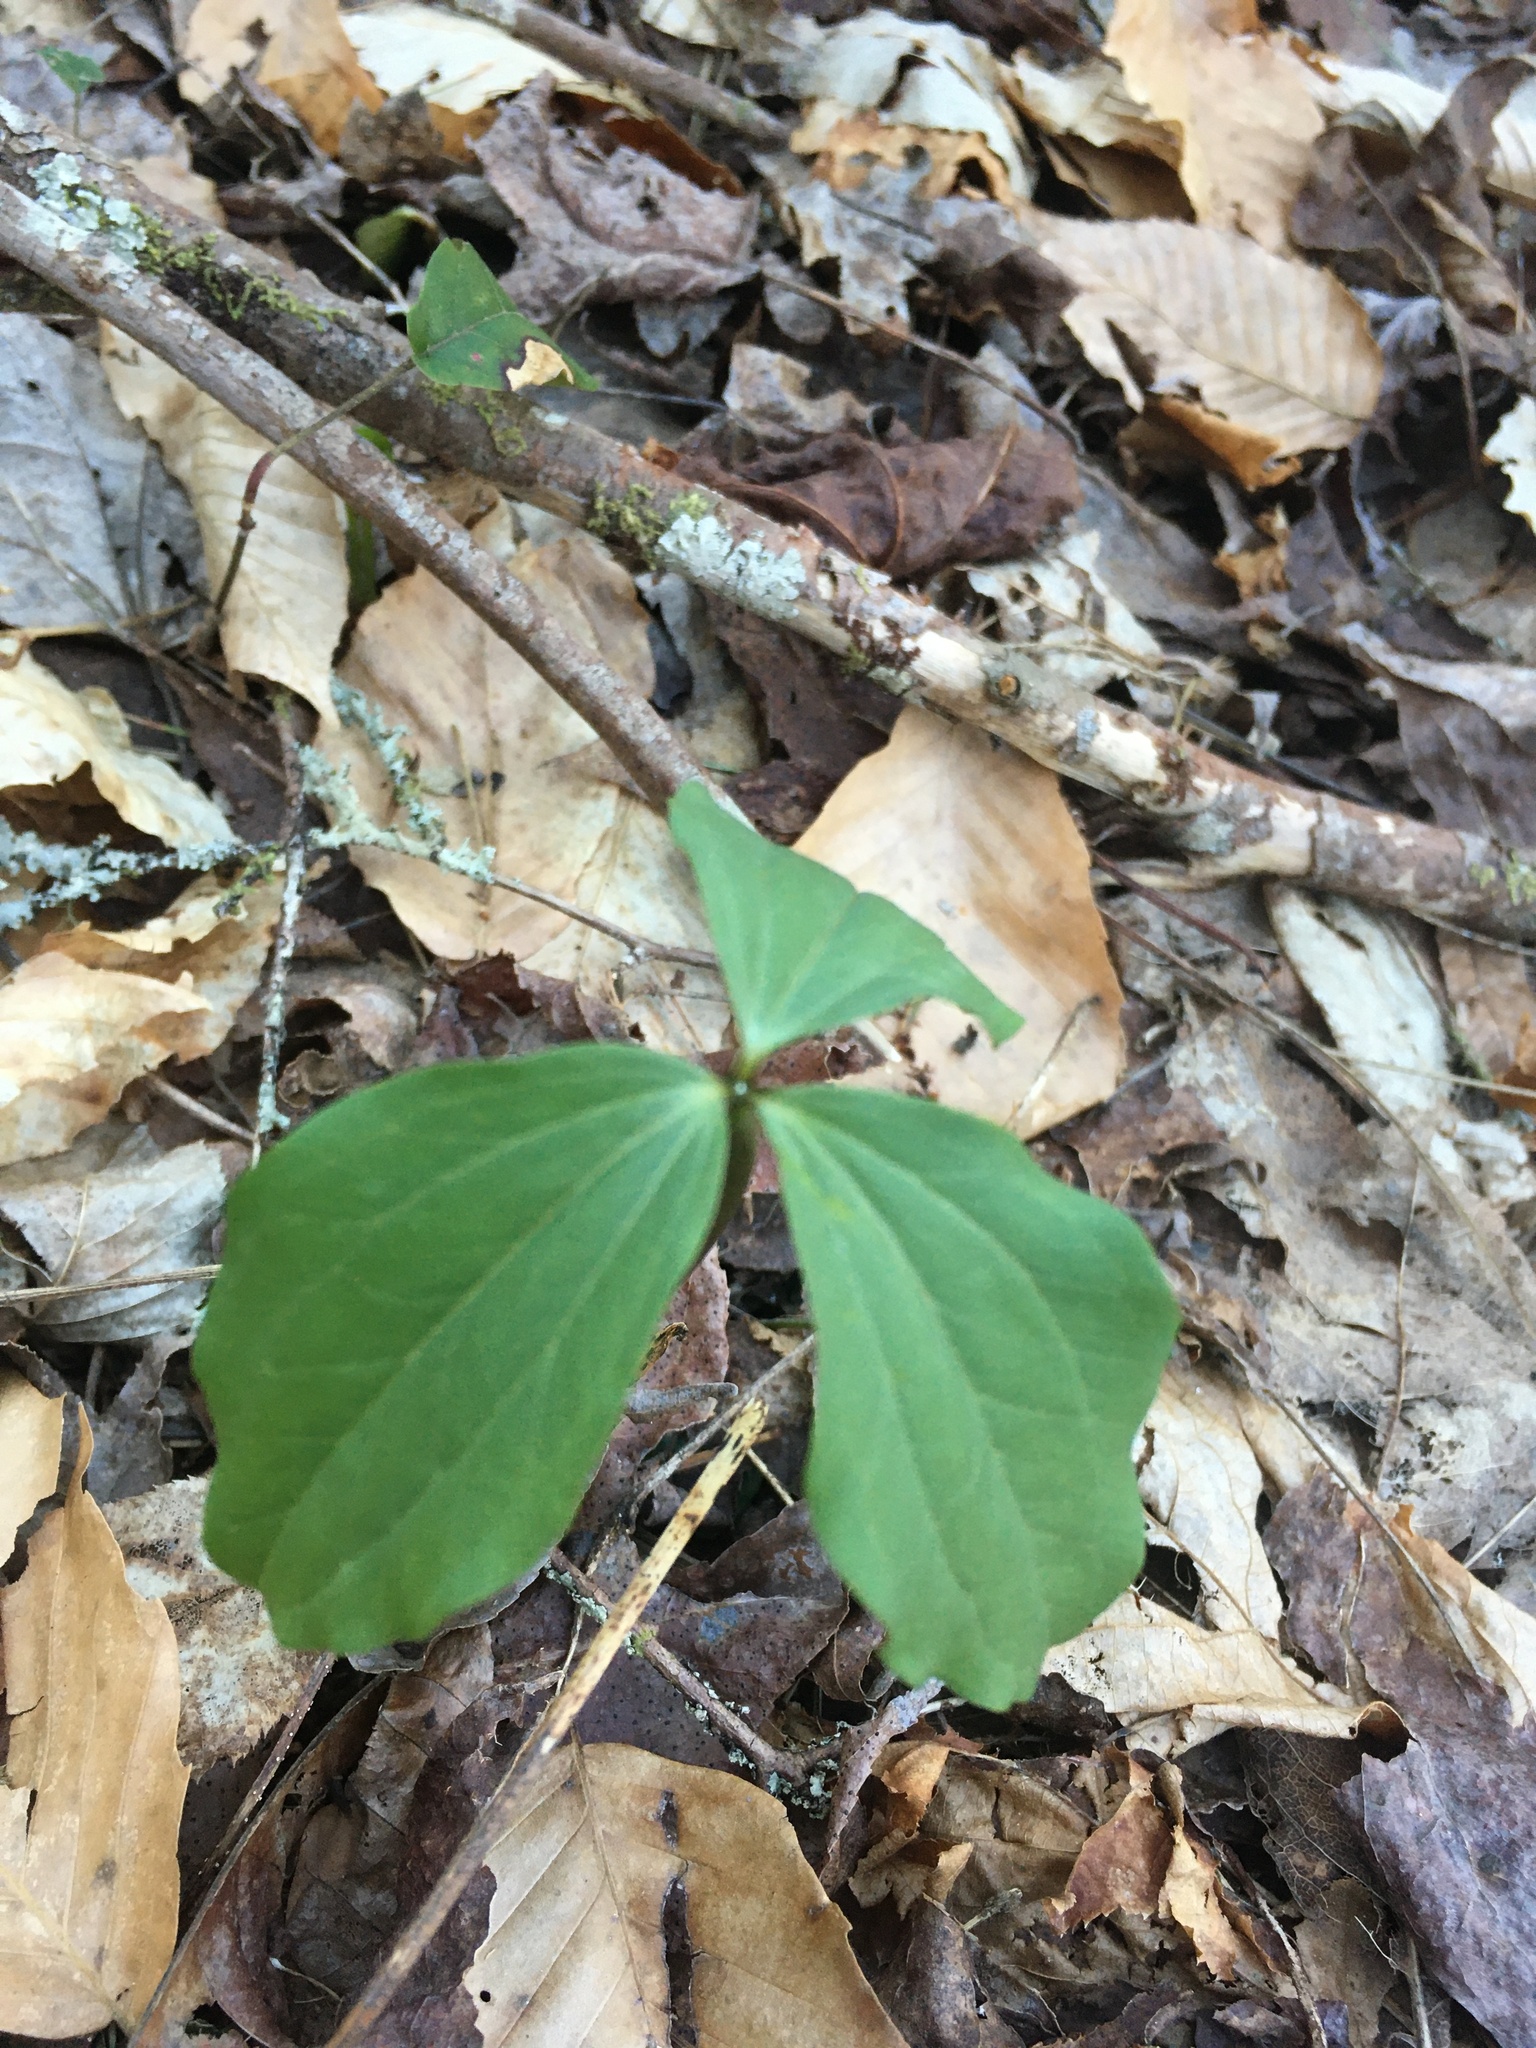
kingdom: Plantae
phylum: Tracheophyta
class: Liliopsida
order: Liliales
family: Melanthiaceae
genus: Trillium
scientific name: Trillium catesbaei
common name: Bashful trillium
